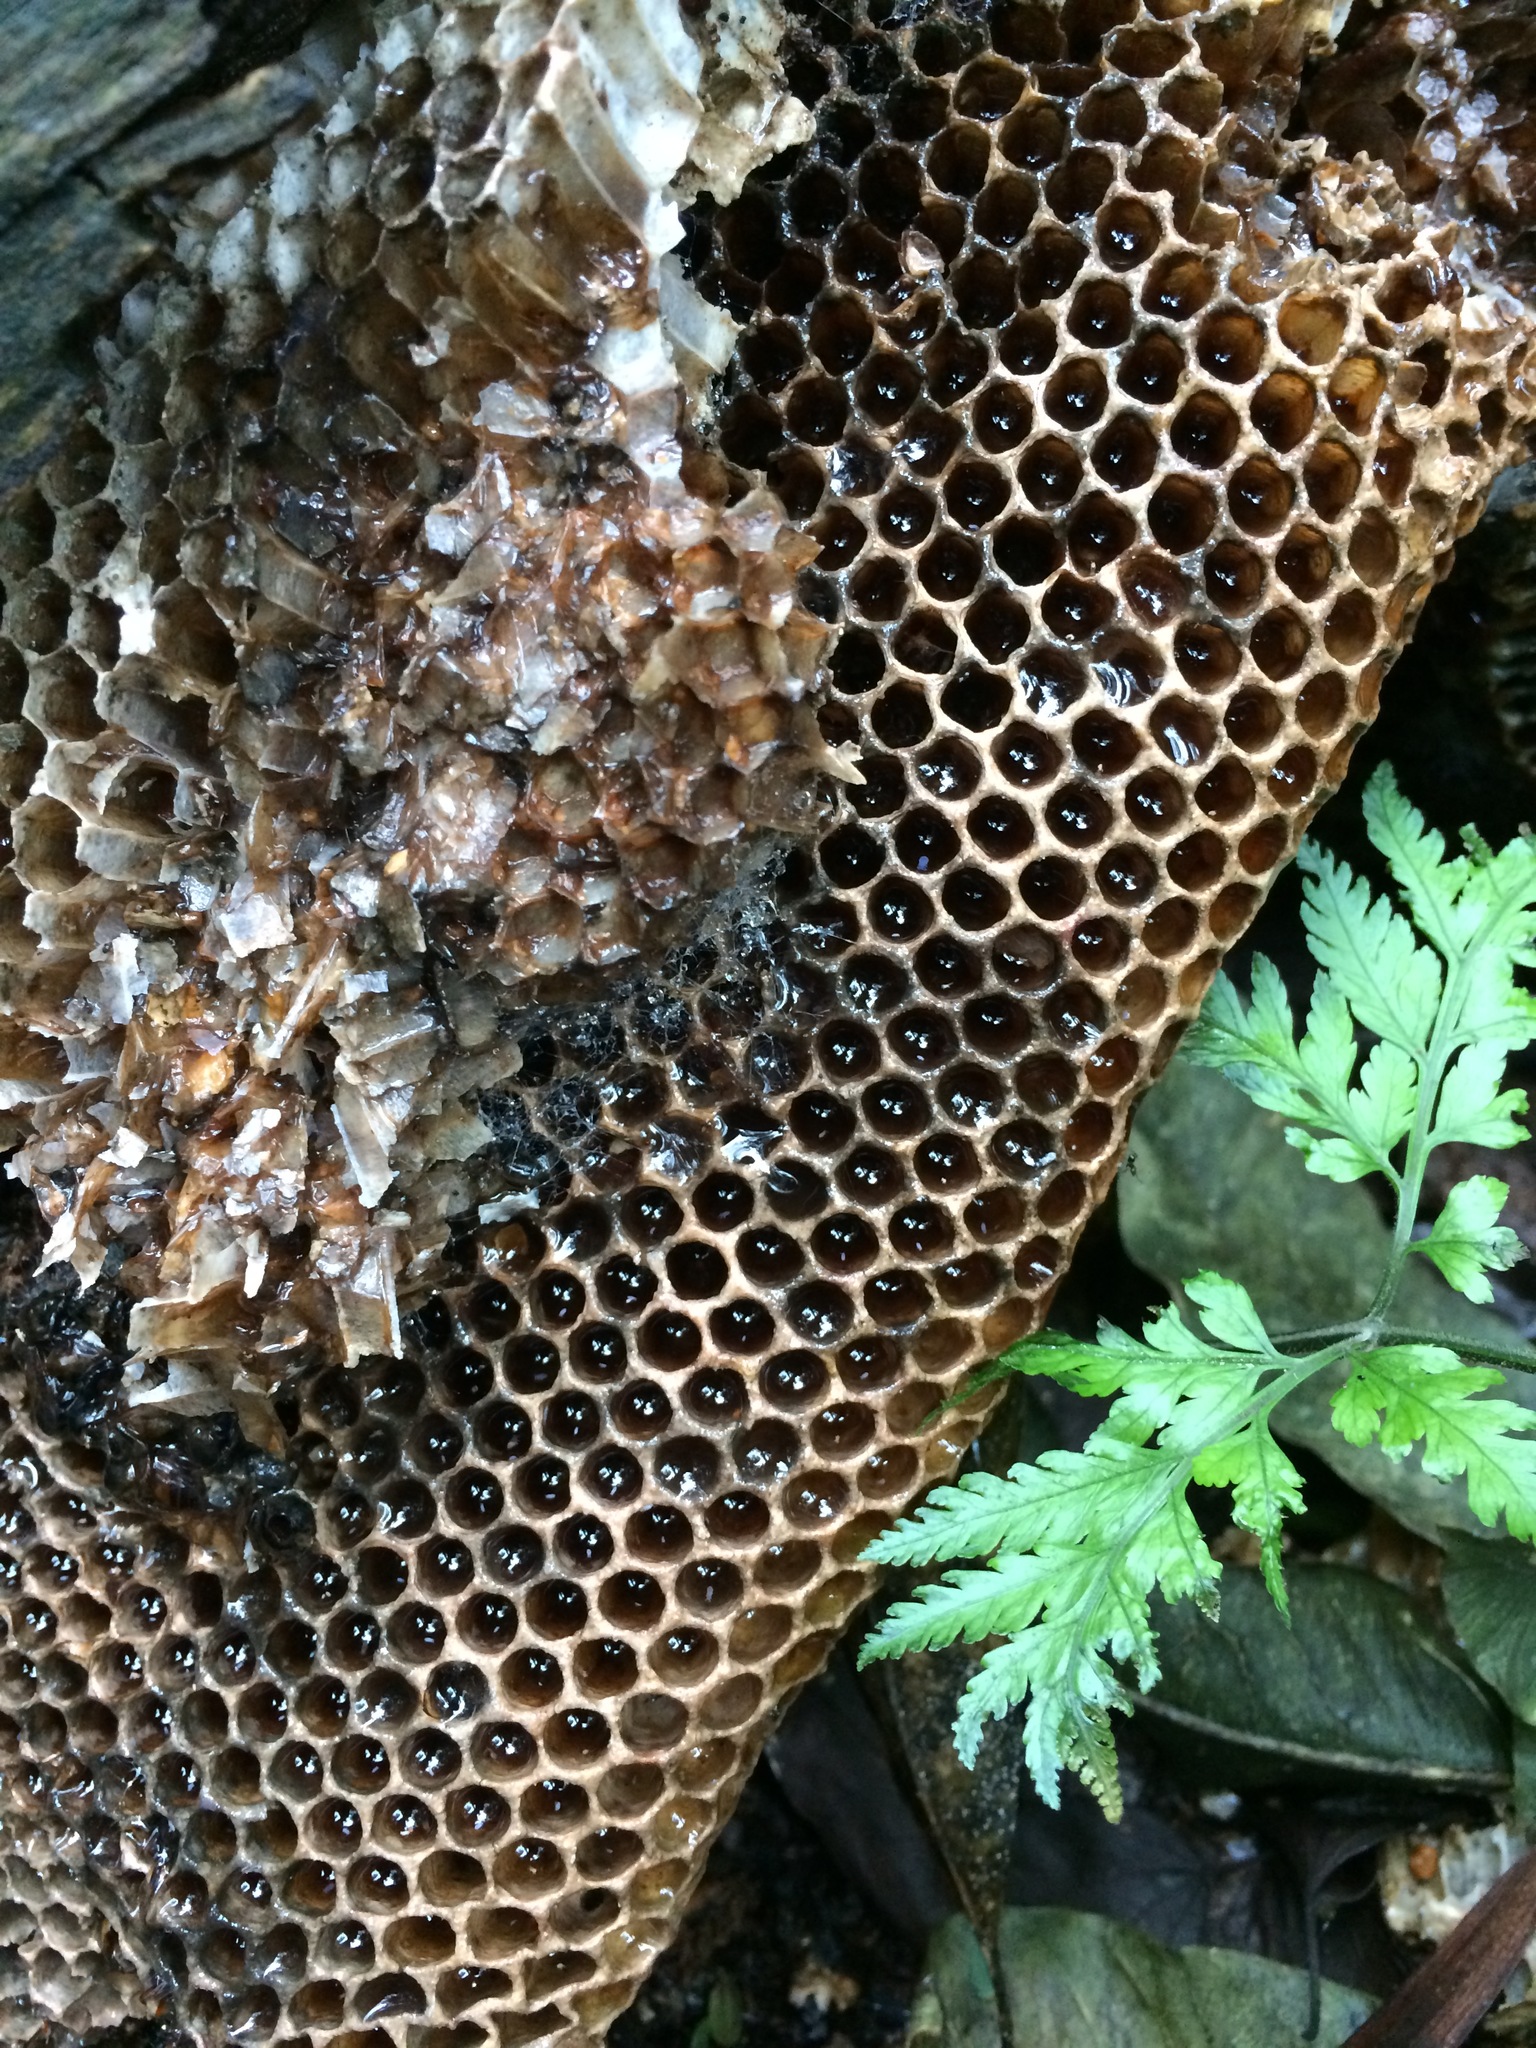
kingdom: Animalia
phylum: Arthropoda
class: Insecta
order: Hymenoptera
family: Apidae
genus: Apis
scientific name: Apis mellifera
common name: Honey bee
